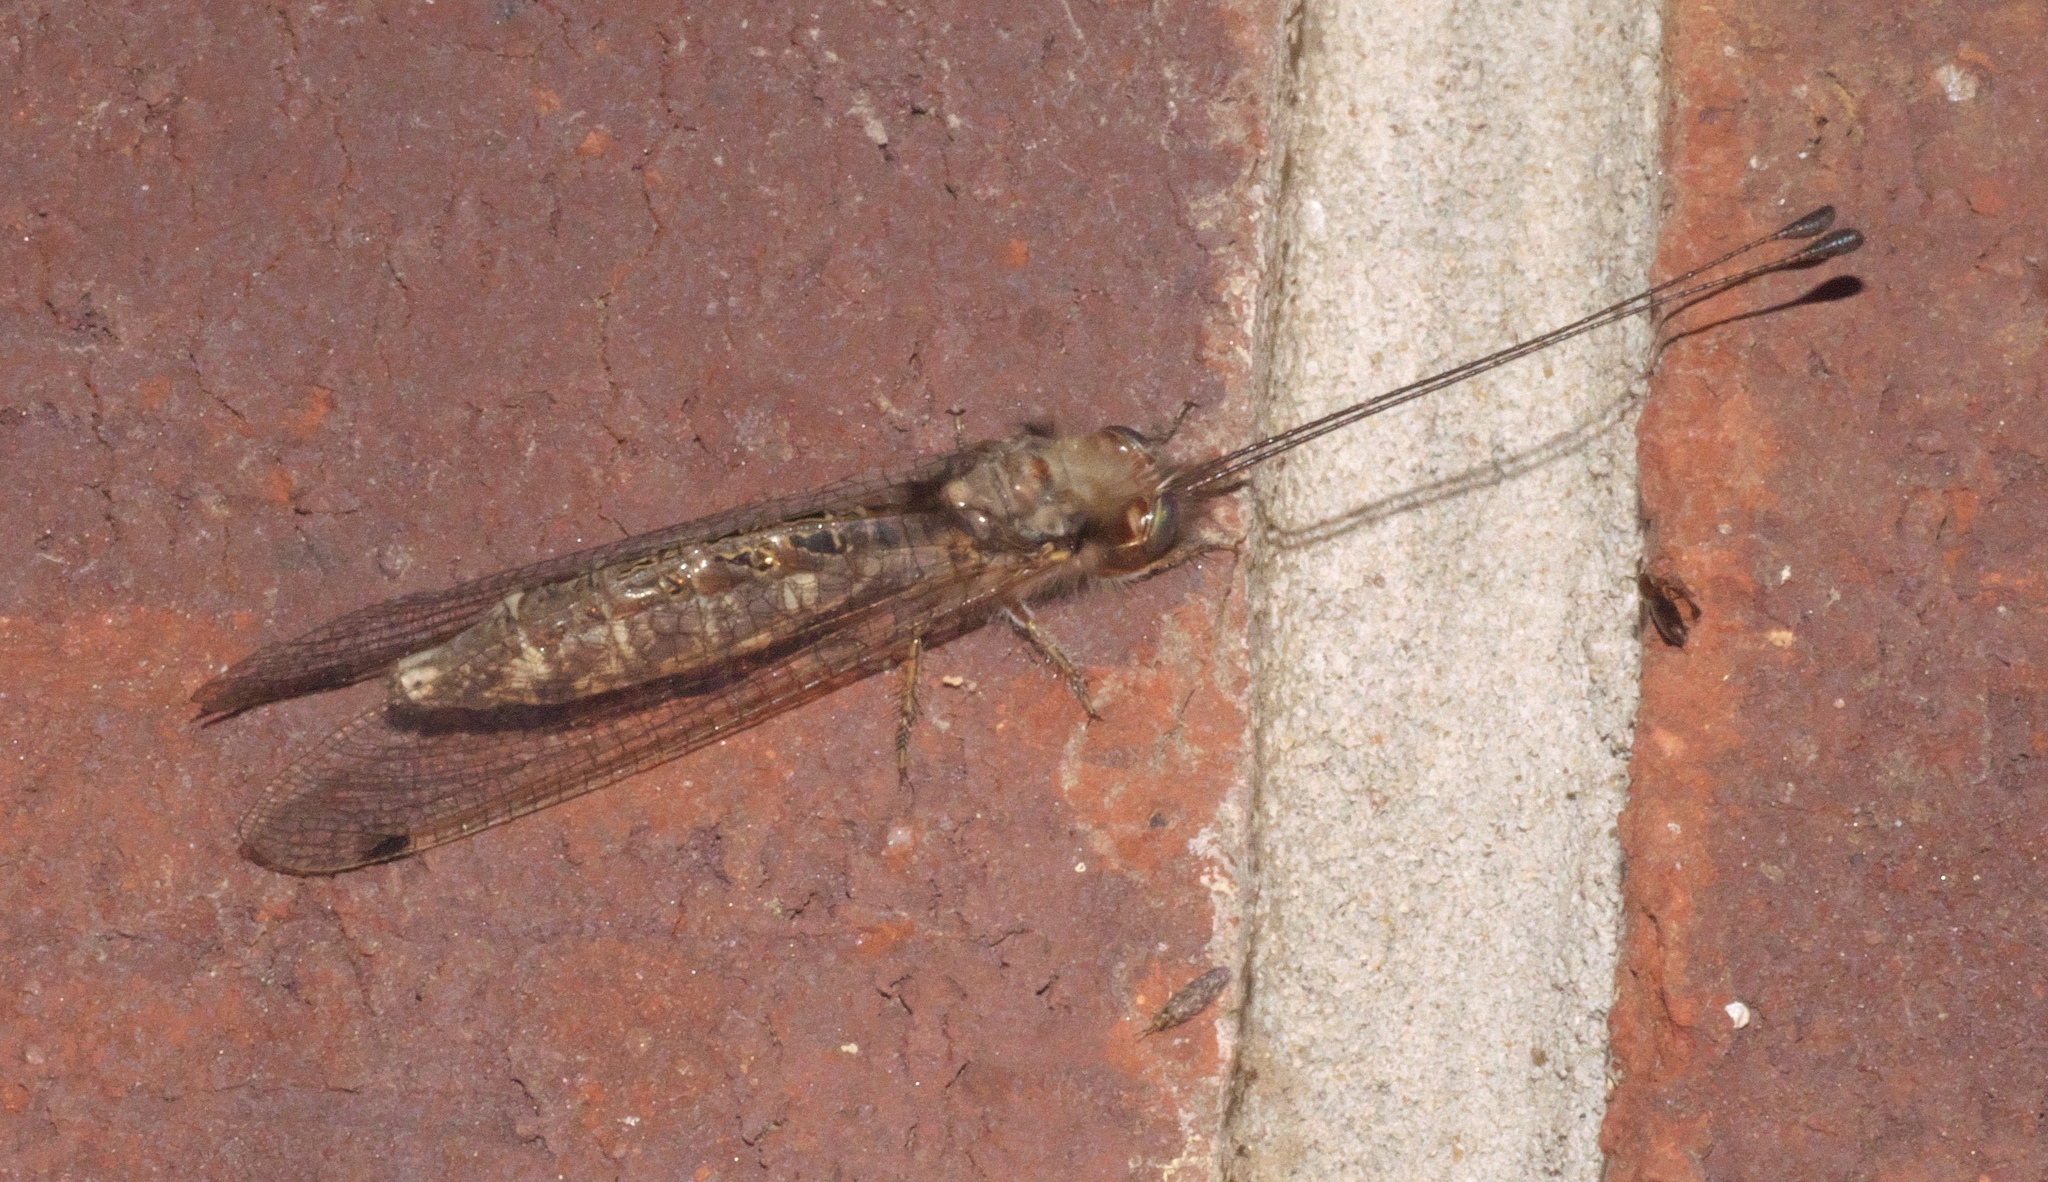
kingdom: Animalia
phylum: Arthropoda
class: Insecta
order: Neuroptera
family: Ascalaphidae
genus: Ululodes
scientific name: Ululodes macleayanus
